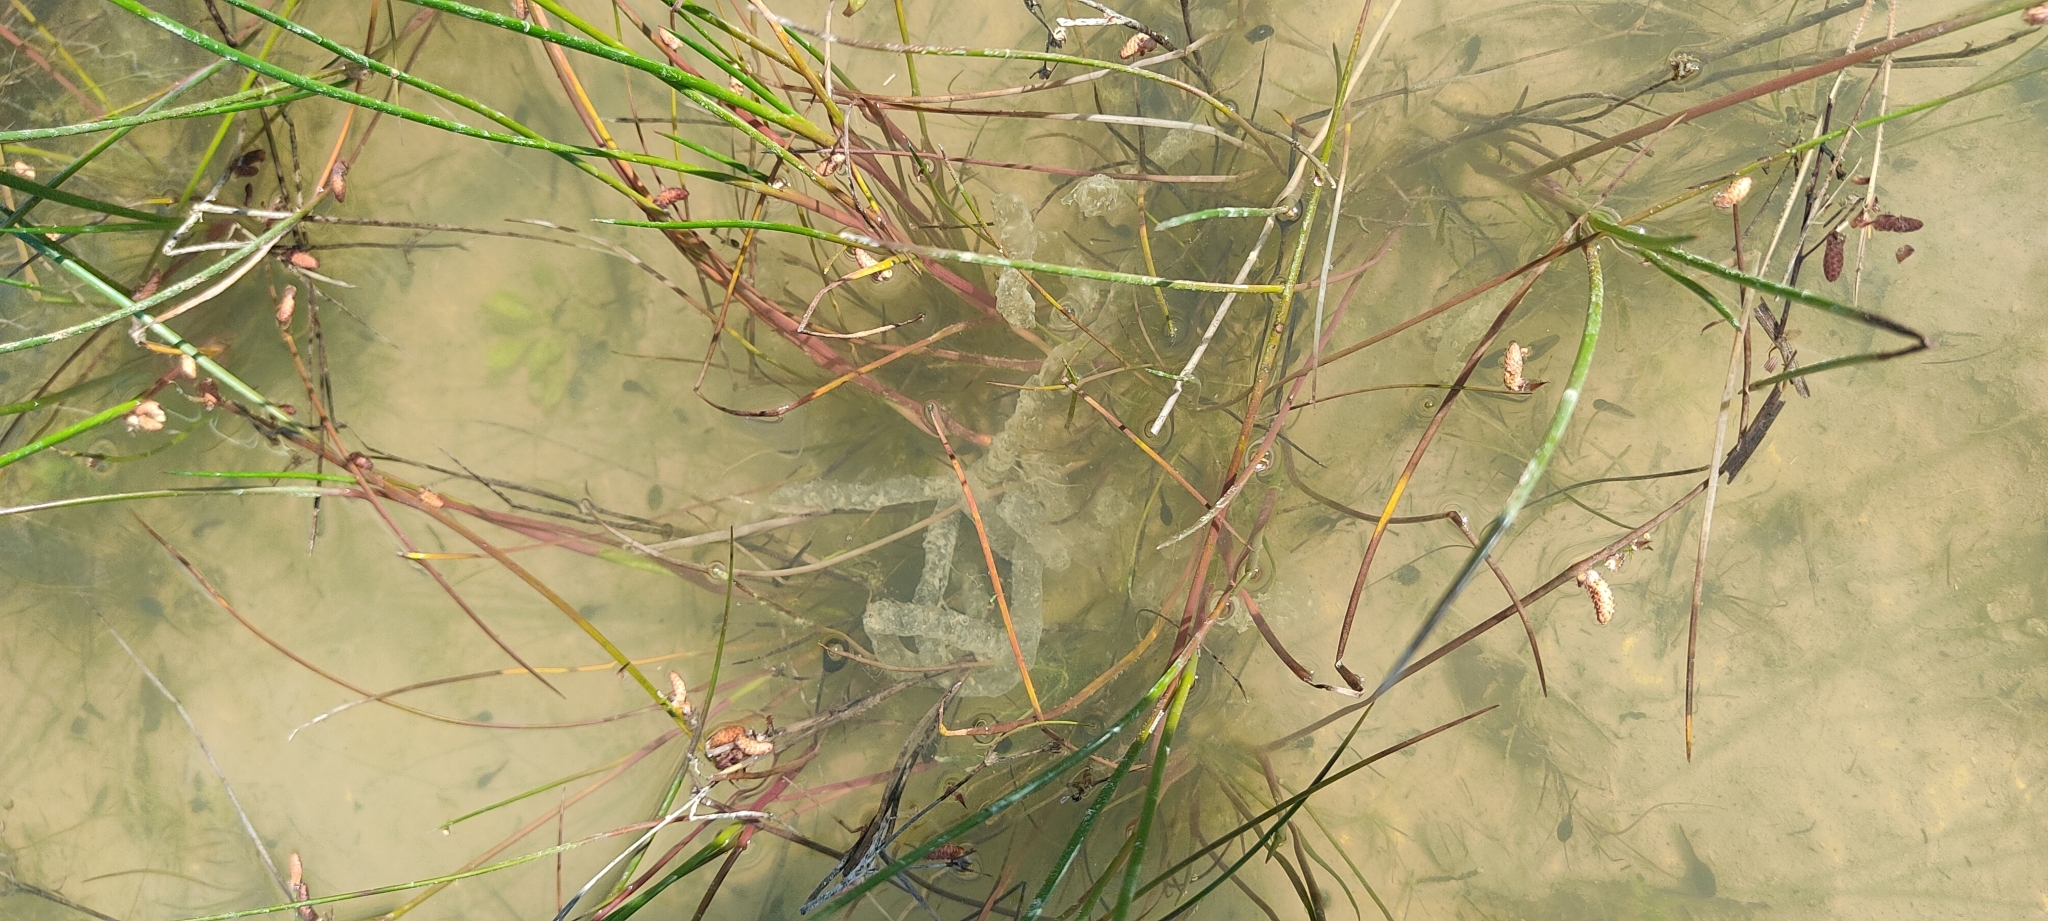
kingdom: Animalia
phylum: Chordata
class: Amphibia
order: Anura
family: Bufonidae
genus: Bufo
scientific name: Bufo spinosus
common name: Western common toad
